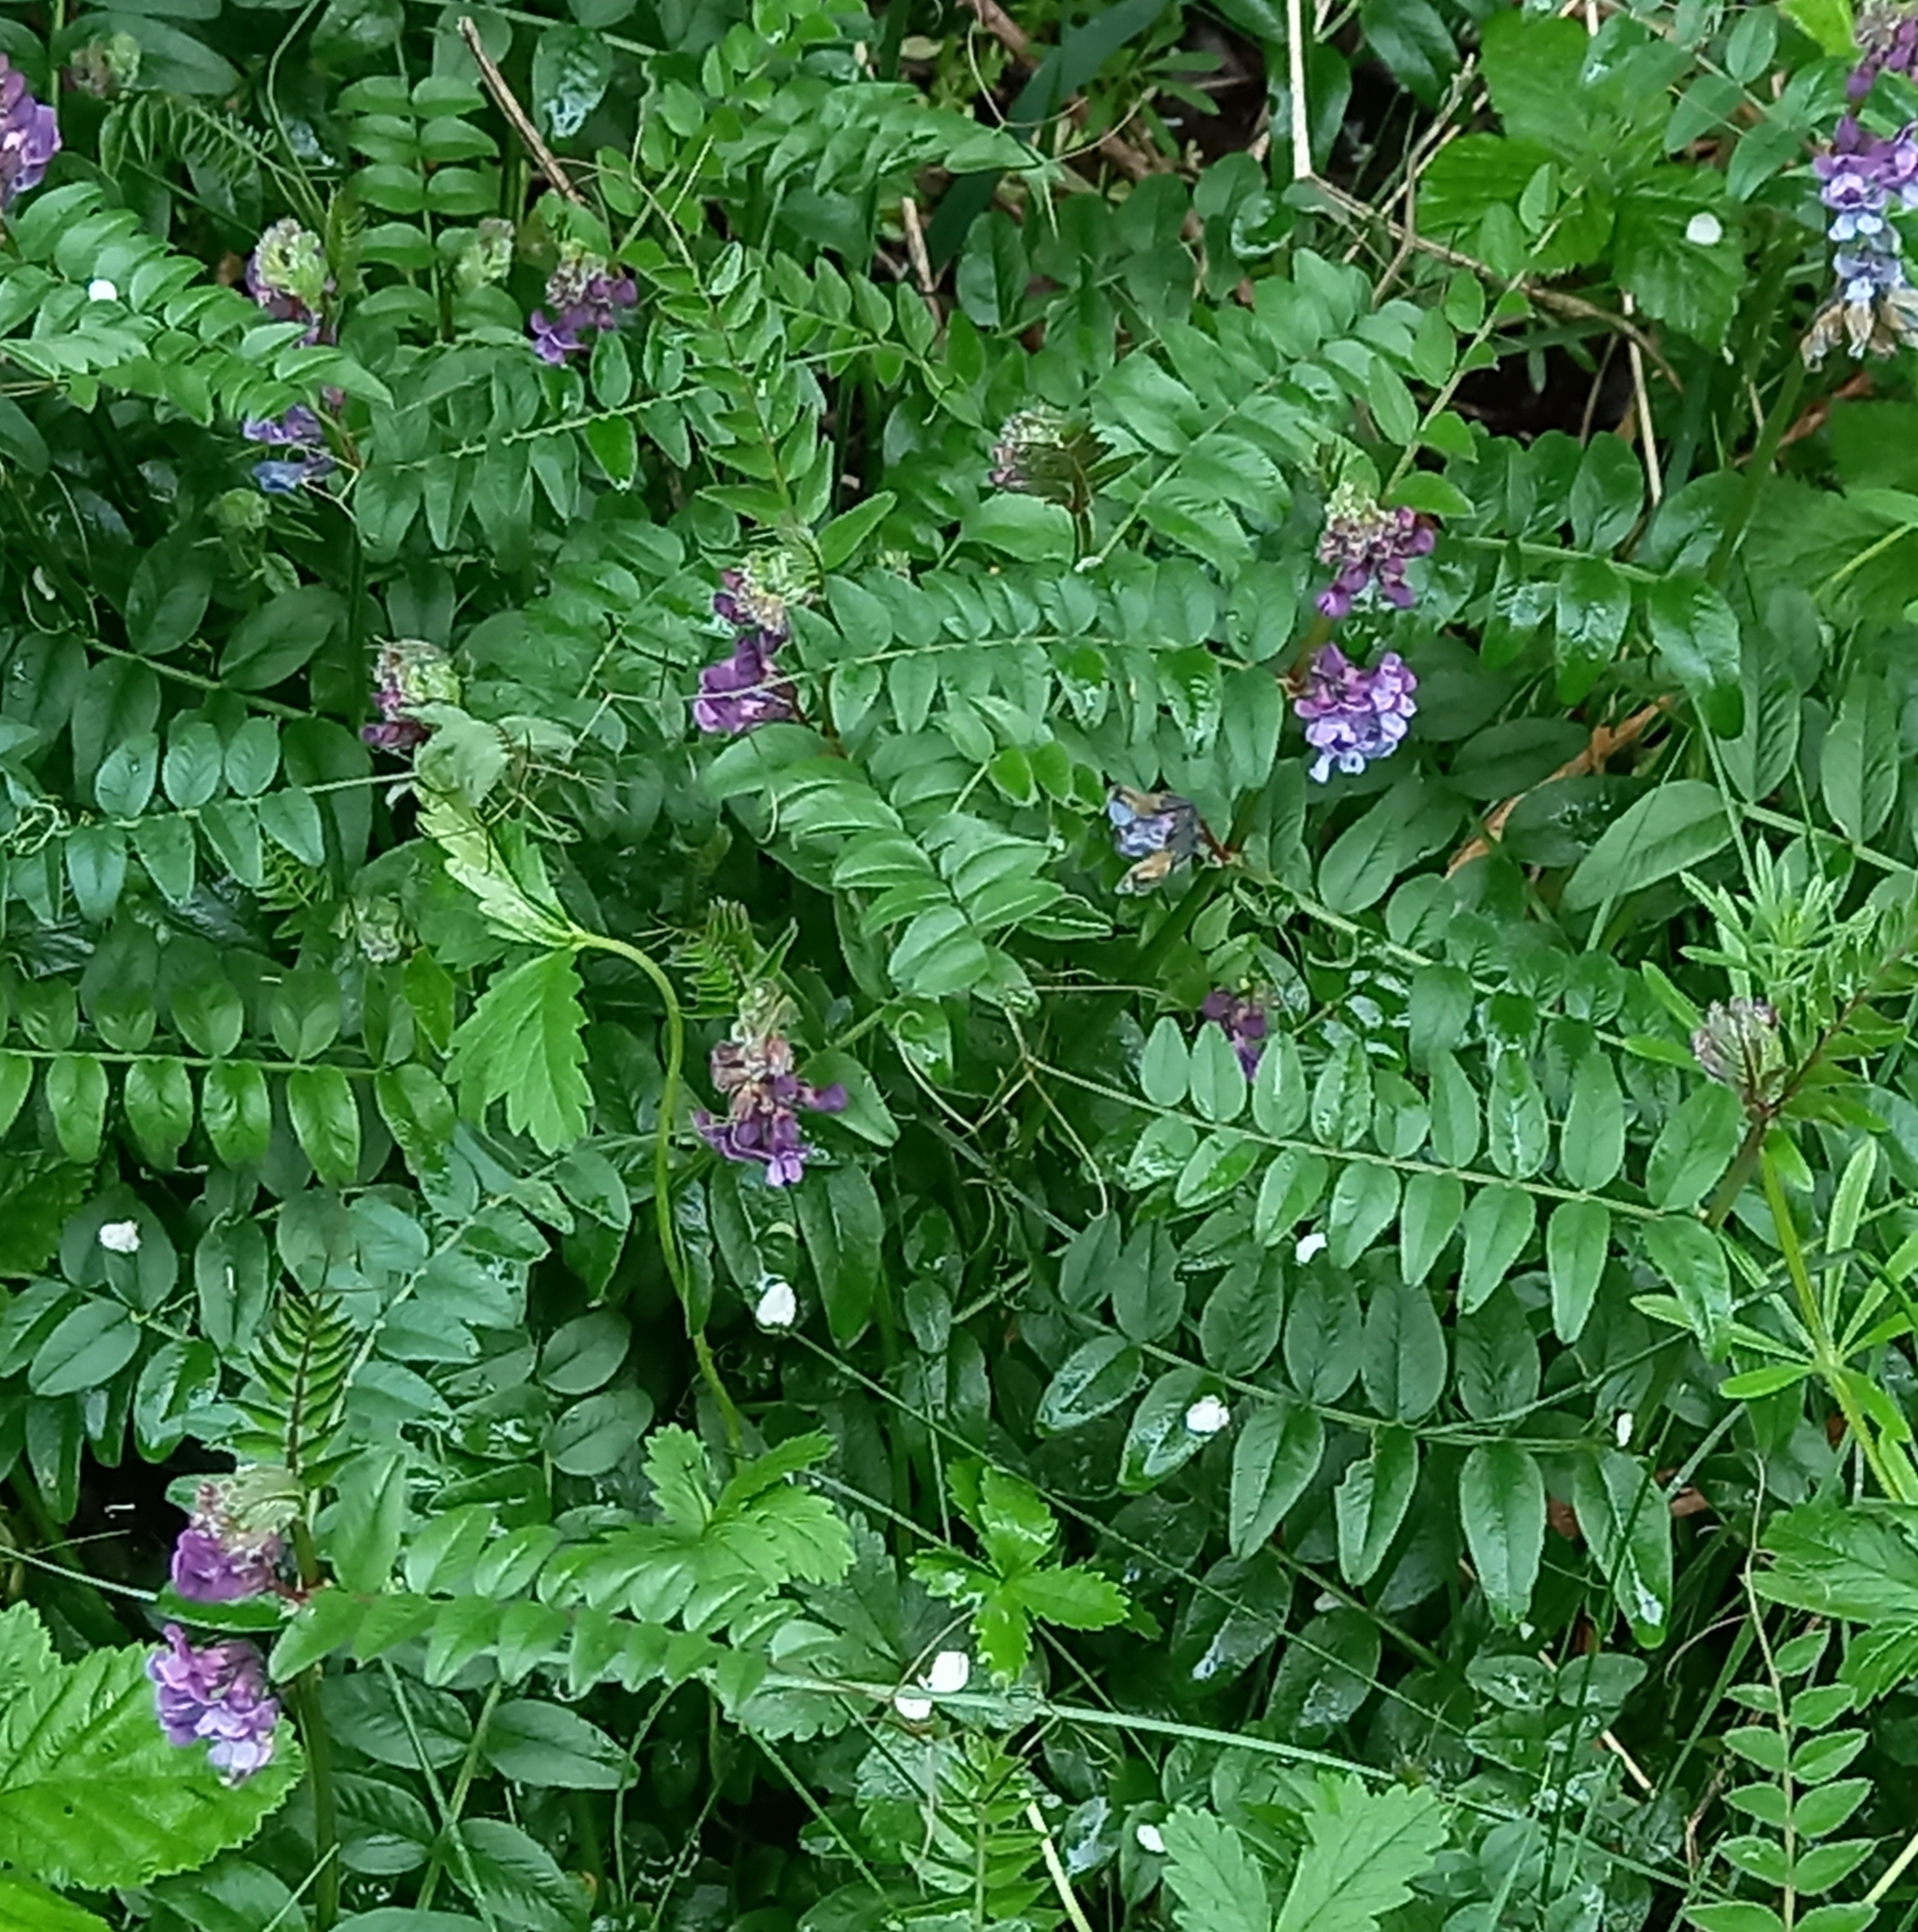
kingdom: Plantae
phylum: Tracheophyta
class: Magnoliopsida
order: Fabales
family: Fabaceae
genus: Vicia
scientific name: Vicia sepium
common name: Bush vetch
